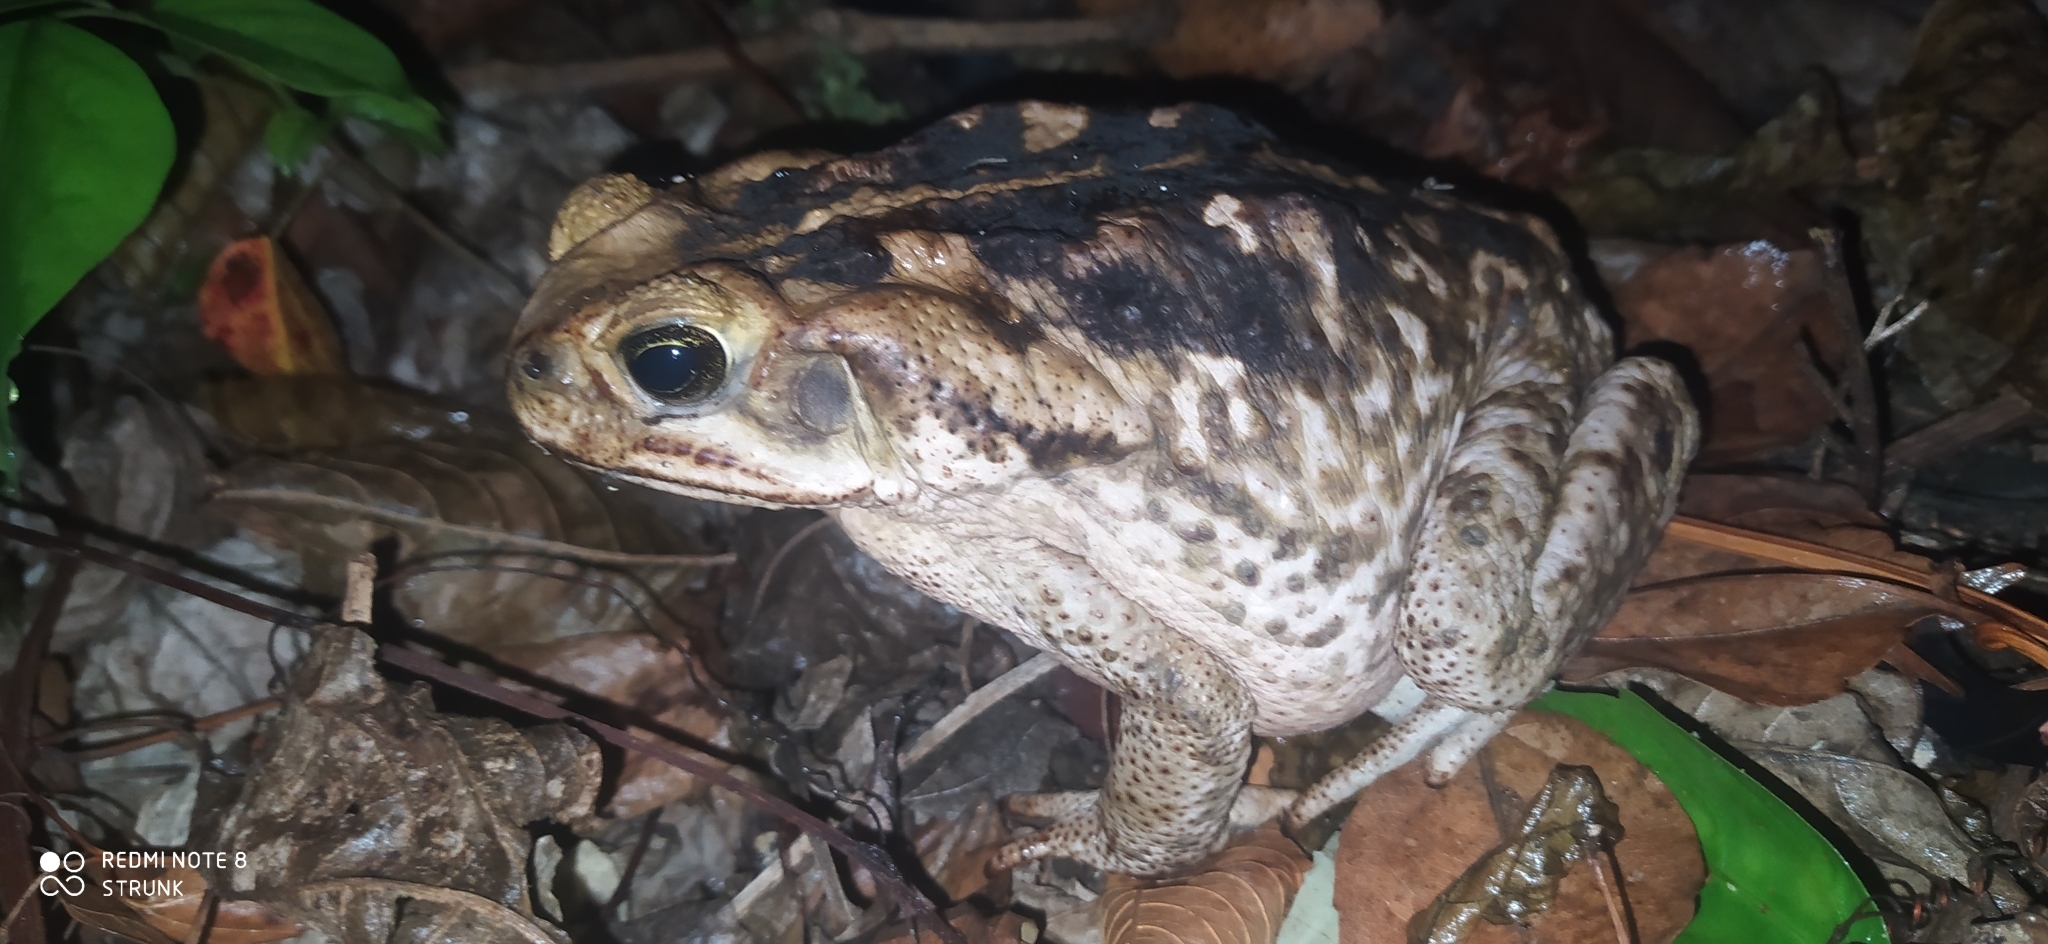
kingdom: Animalia
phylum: Chordata
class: Amphibia
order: Anura
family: Bufonidae
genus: Rhinella
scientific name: Rhinella horribilis
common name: Mesoamerican cane toad
